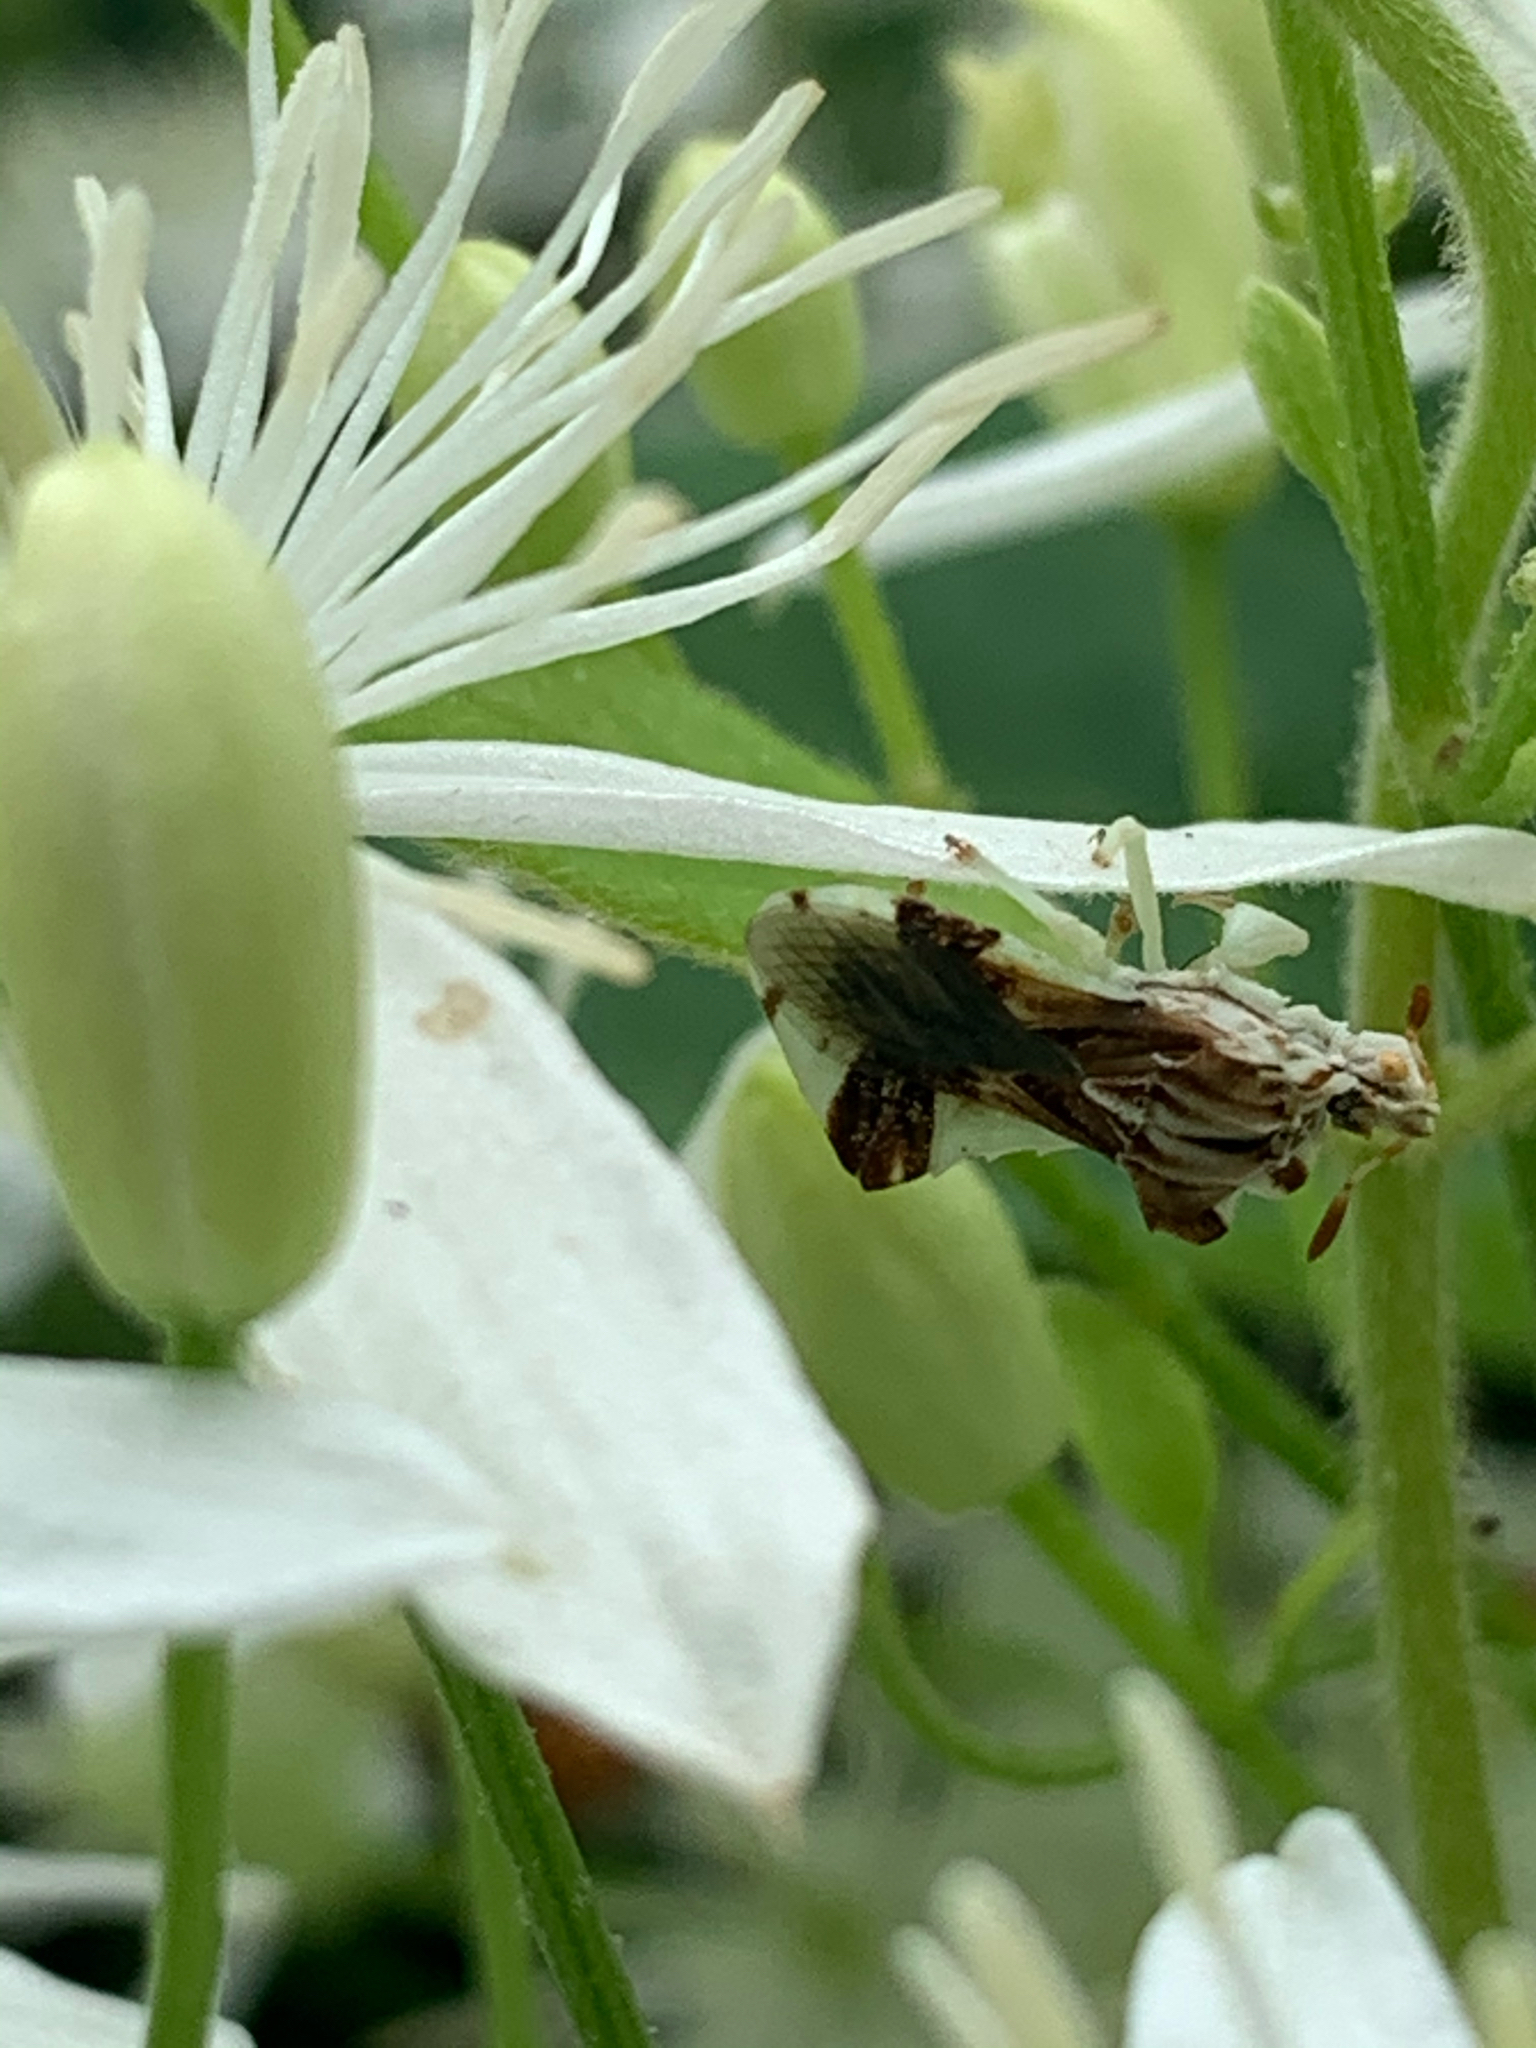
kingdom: Animalia
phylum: Arthropoda
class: Insecta
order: Hemiptera
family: Reduviidae
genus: Phymata
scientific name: Phymata fasciata
